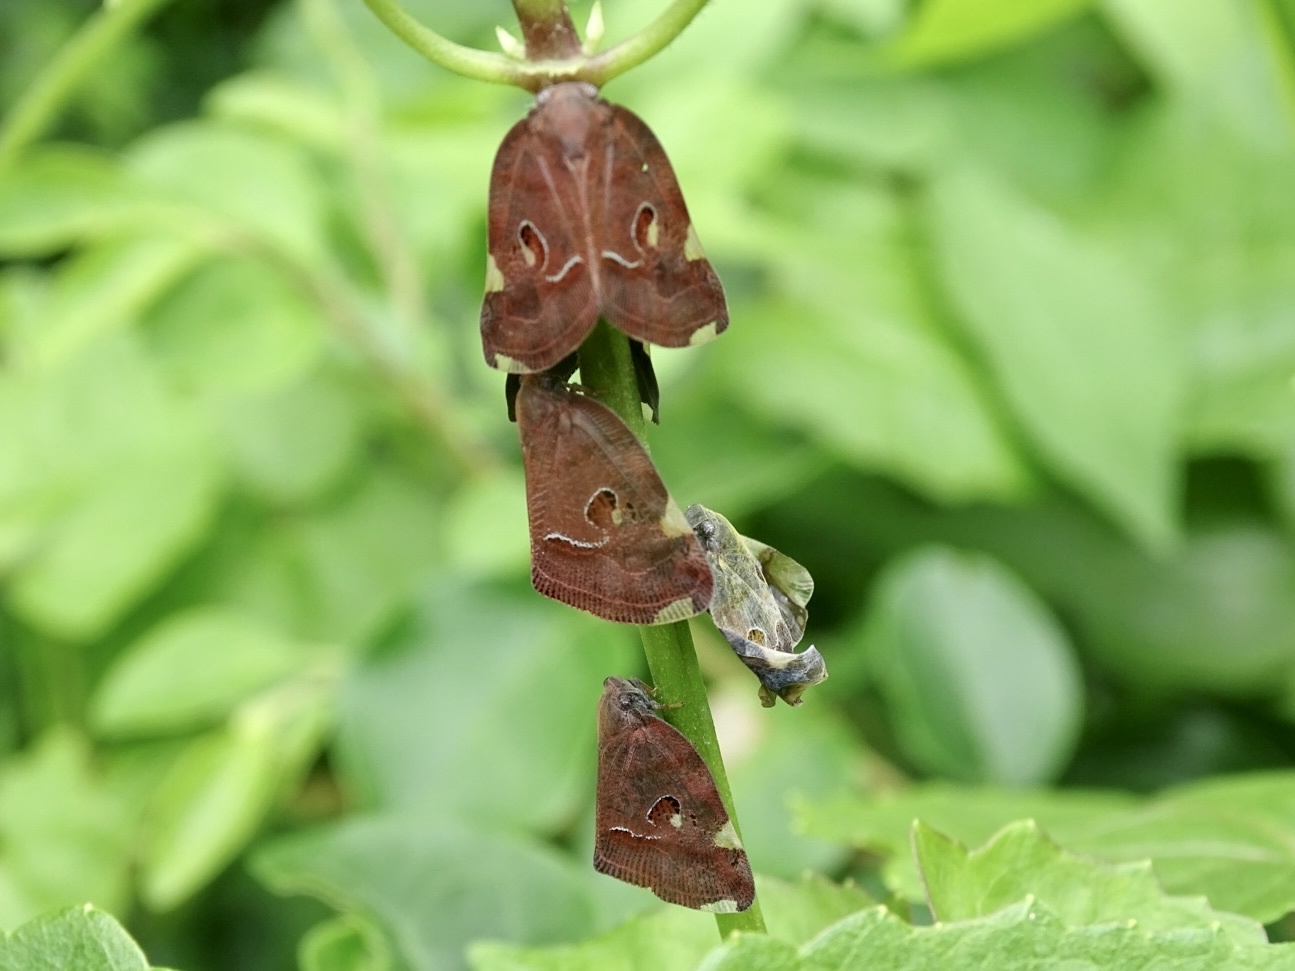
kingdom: Animalia
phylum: Arthropoda
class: Insecta
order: Hemiptera
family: Ricaniidae
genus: Ricania
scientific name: Ricania guttata
